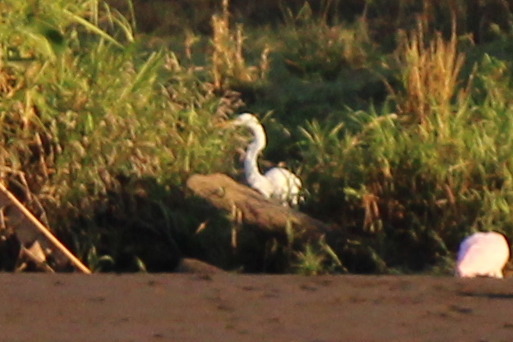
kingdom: Animalia
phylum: Chordata
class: Aves
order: Pelecaniformes
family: Ardeidae
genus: Ardea
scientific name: Ardea alba
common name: Great egret
